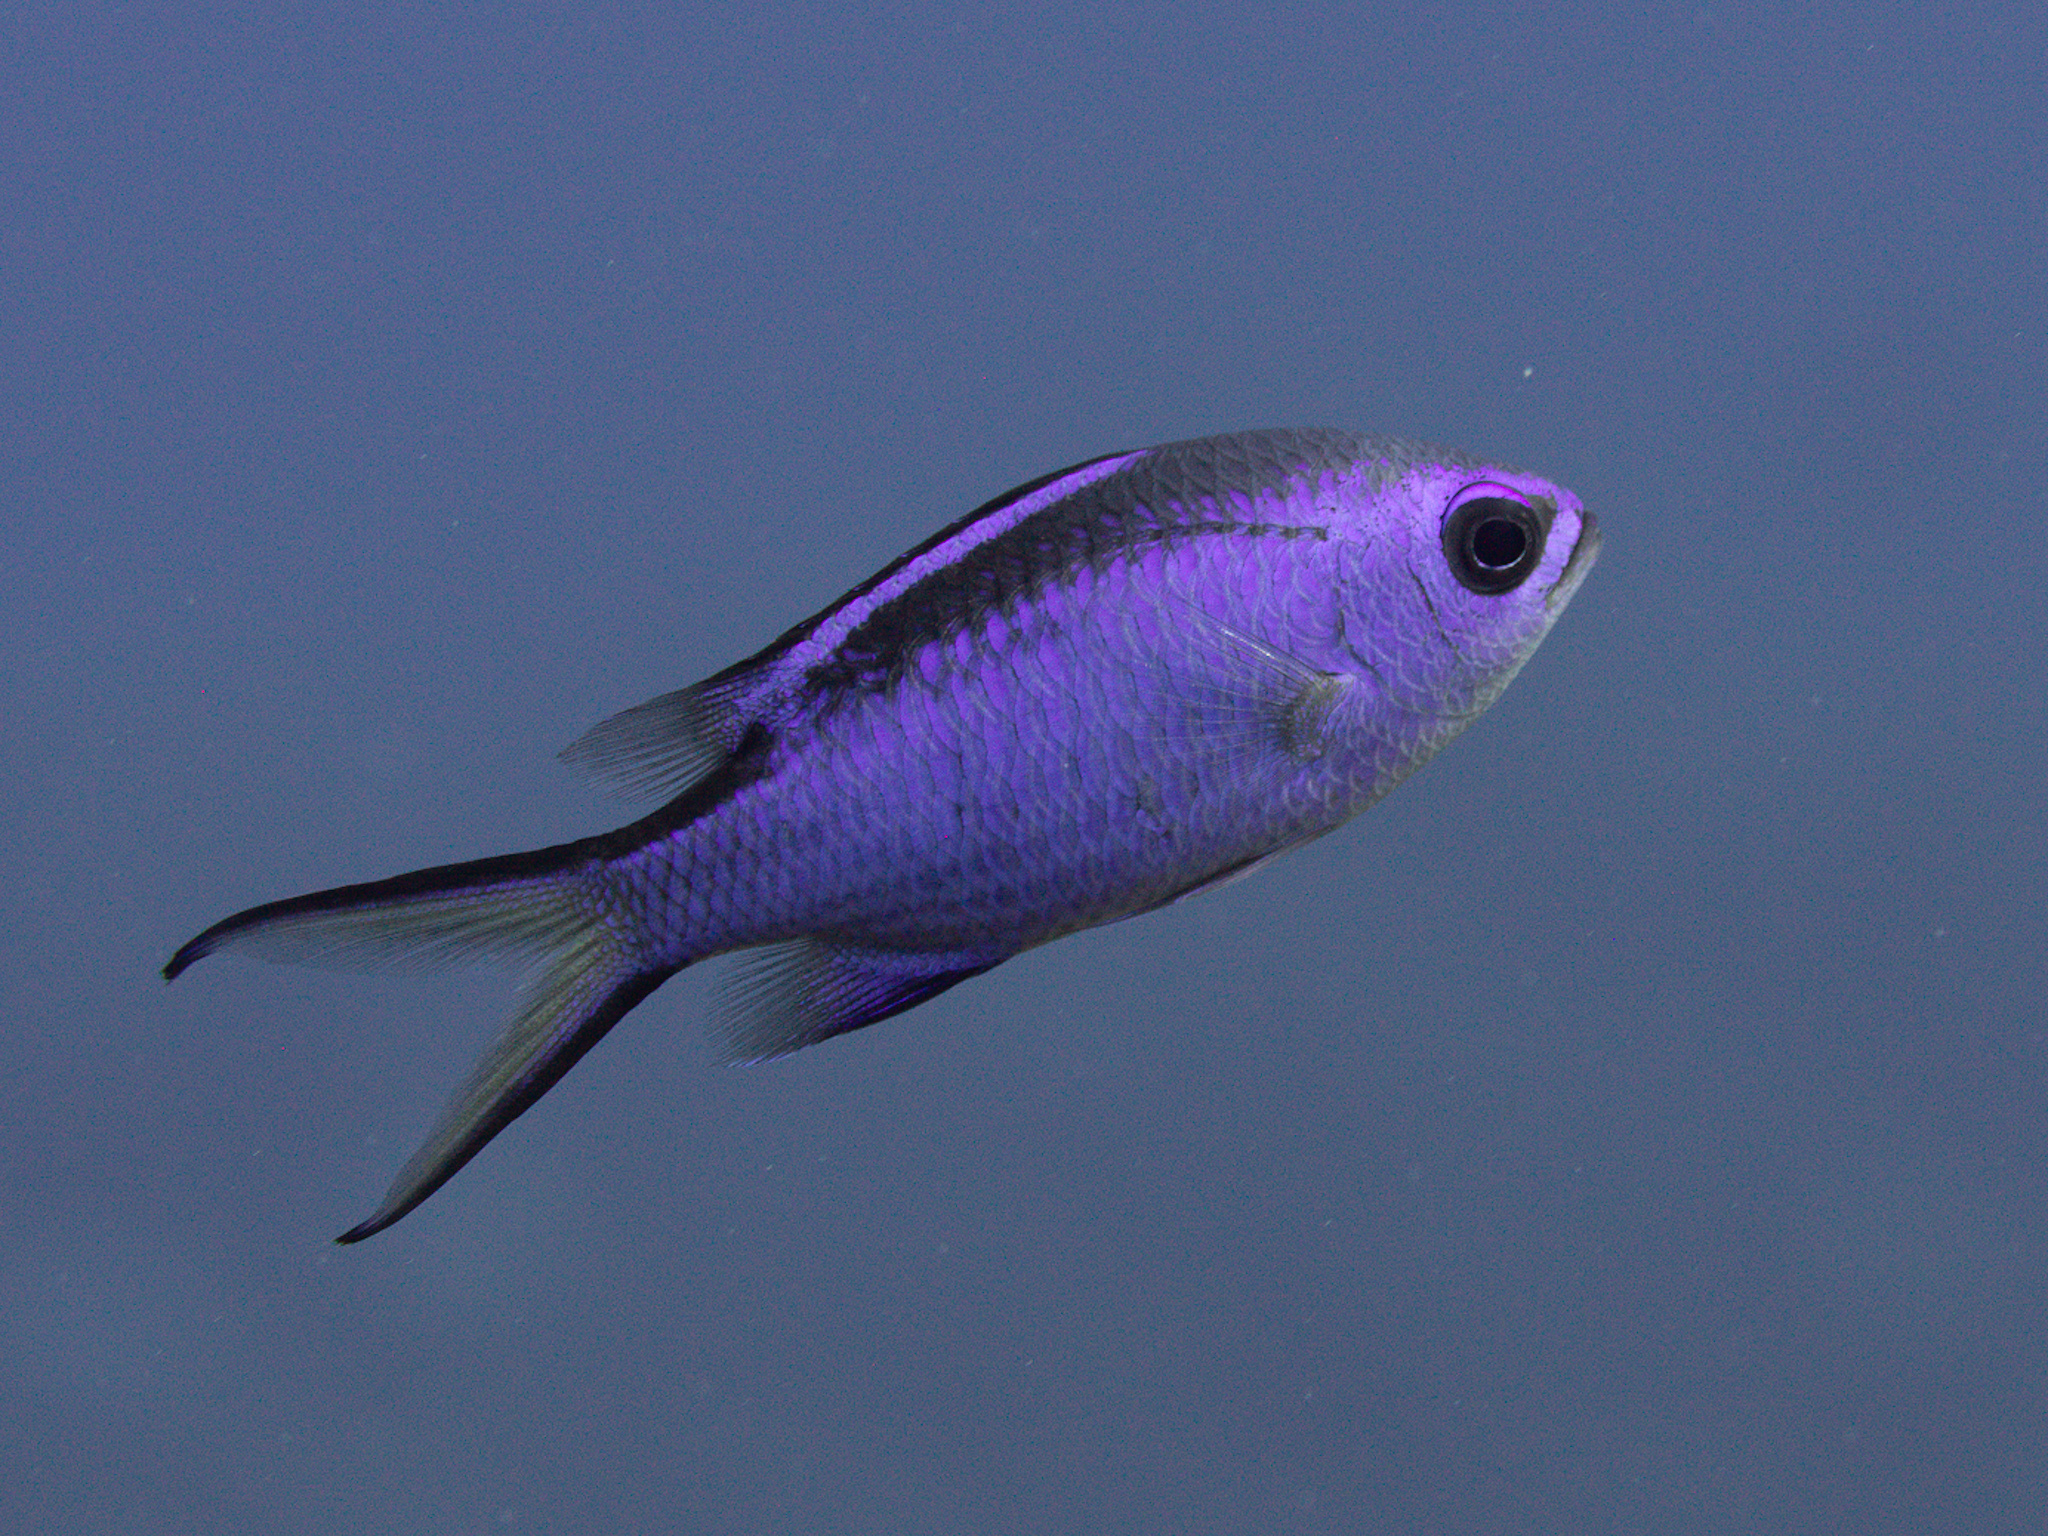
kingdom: Animalia
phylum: Chordata
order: Perciformes
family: Pomacentridae
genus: Chromis
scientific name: Chromis cyanea
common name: Blue chromis
